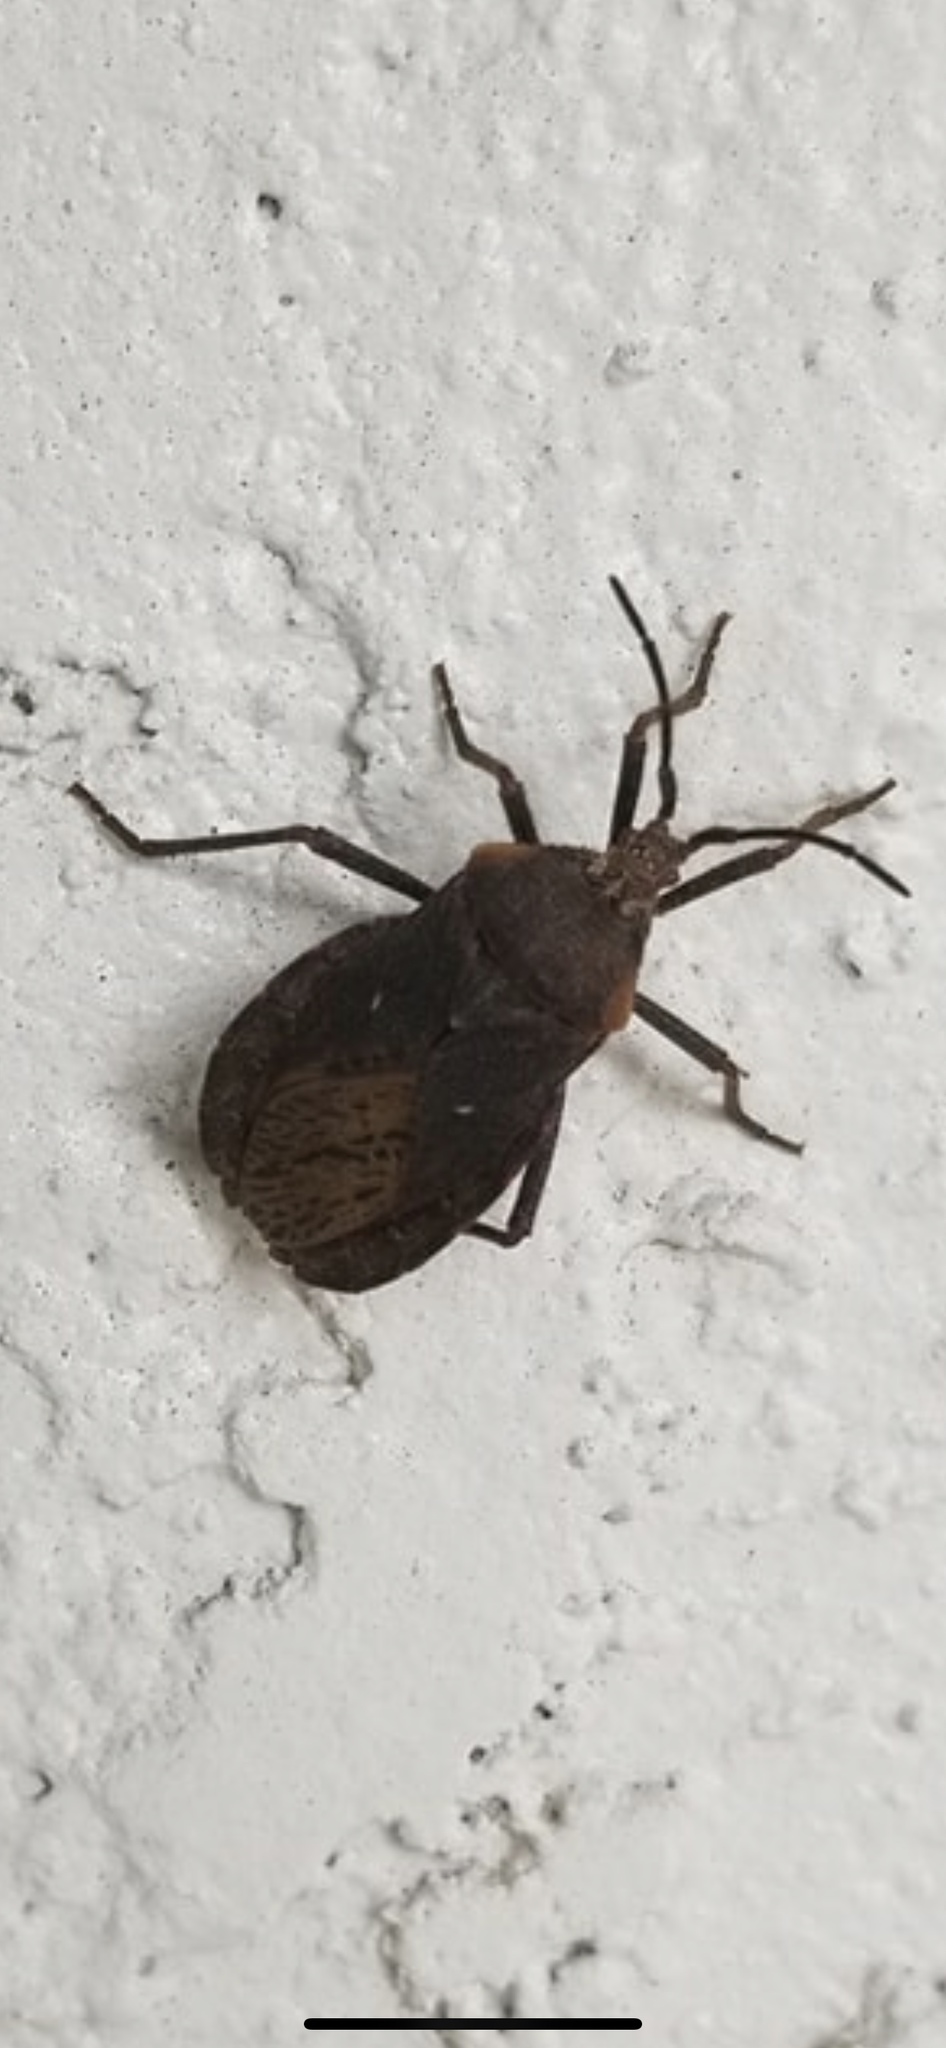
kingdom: Animalia
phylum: Arthropoda
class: Insecta
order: Hemiptera
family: Coreidae
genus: Spartocera
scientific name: Spartocera batatas
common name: Giant sweetpotato bug
